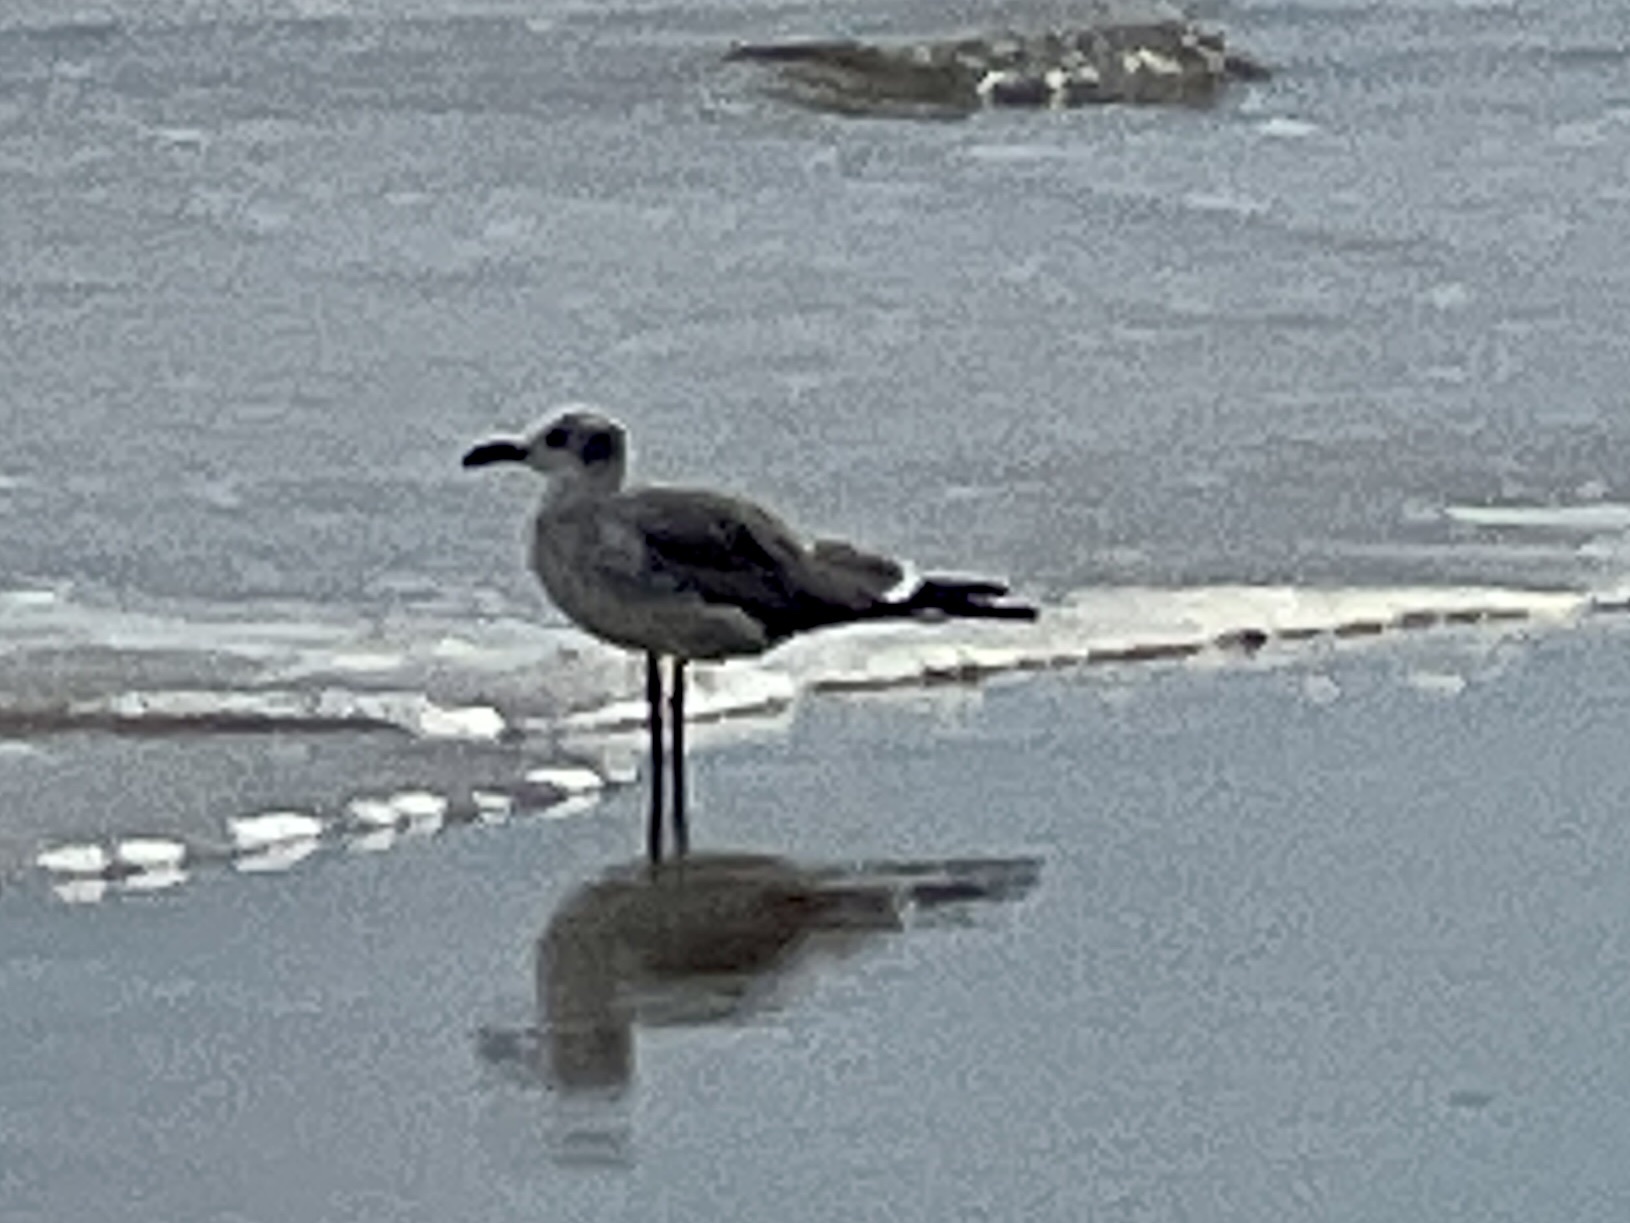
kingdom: Animalia
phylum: Chordata
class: Aves
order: Charadriiformes
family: Laridae
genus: Leucophaeus
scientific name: Leucophaeus atricilla
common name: Laughing gull
